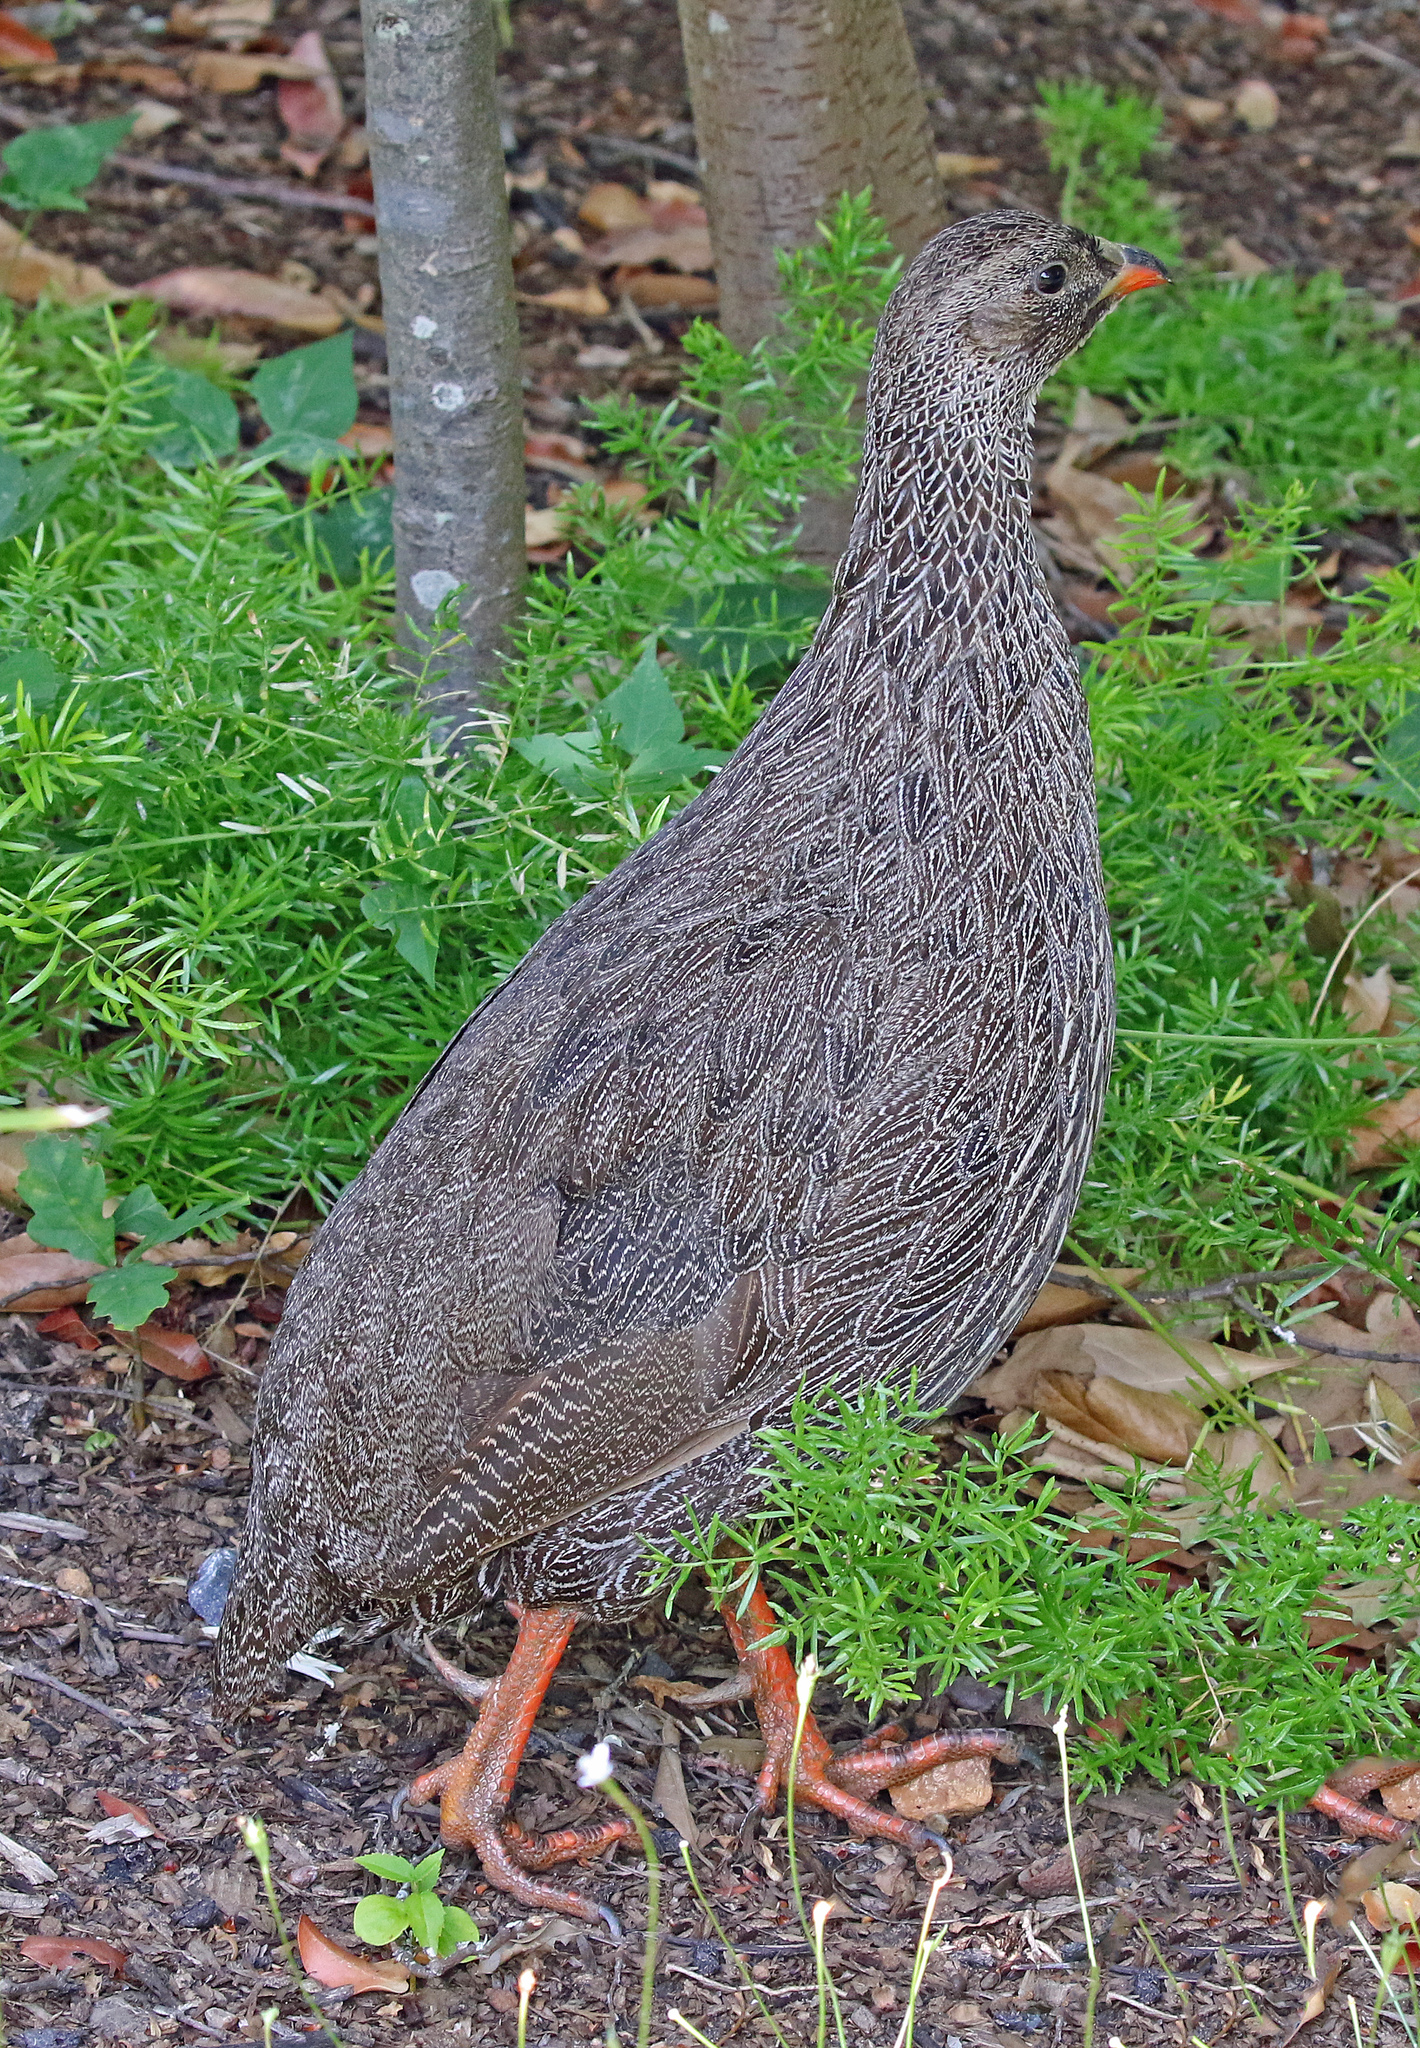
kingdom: Animalia
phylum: Chordata
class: Aves
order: Galliformes
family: Phasianidae
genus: Pternistis
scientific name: Pternistis capensis
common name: Cape spurfowl
